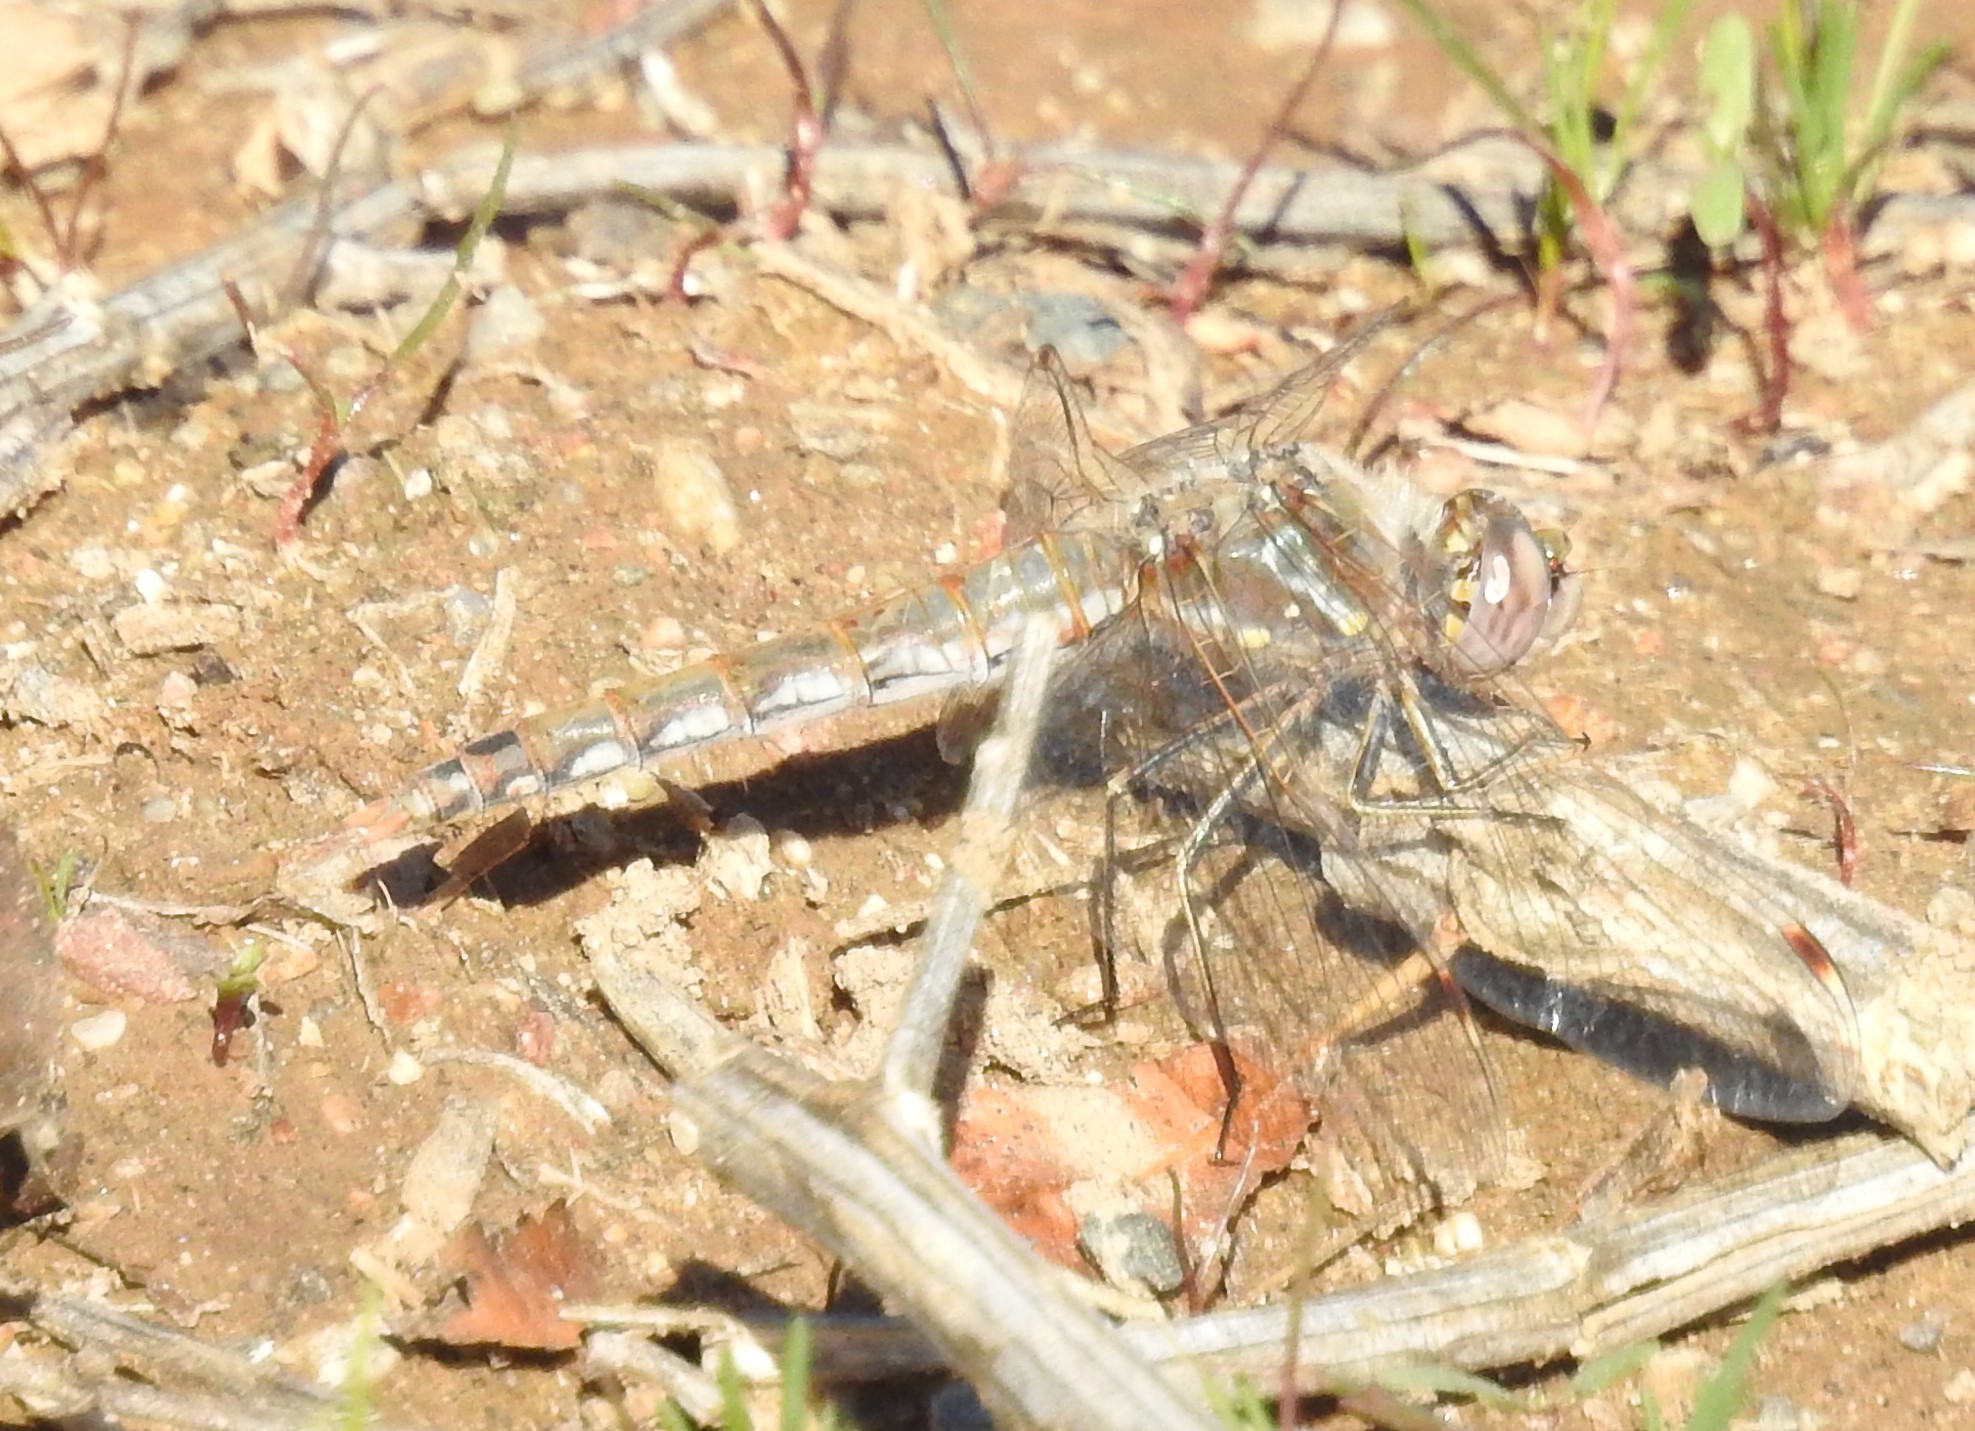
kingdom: Animalia
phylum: Arthropoda
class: Insecta
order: Odonata
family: Libellulidae
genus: Sympetrum
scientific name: Sympetrum corruptum
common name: Variegated meadowhawk
